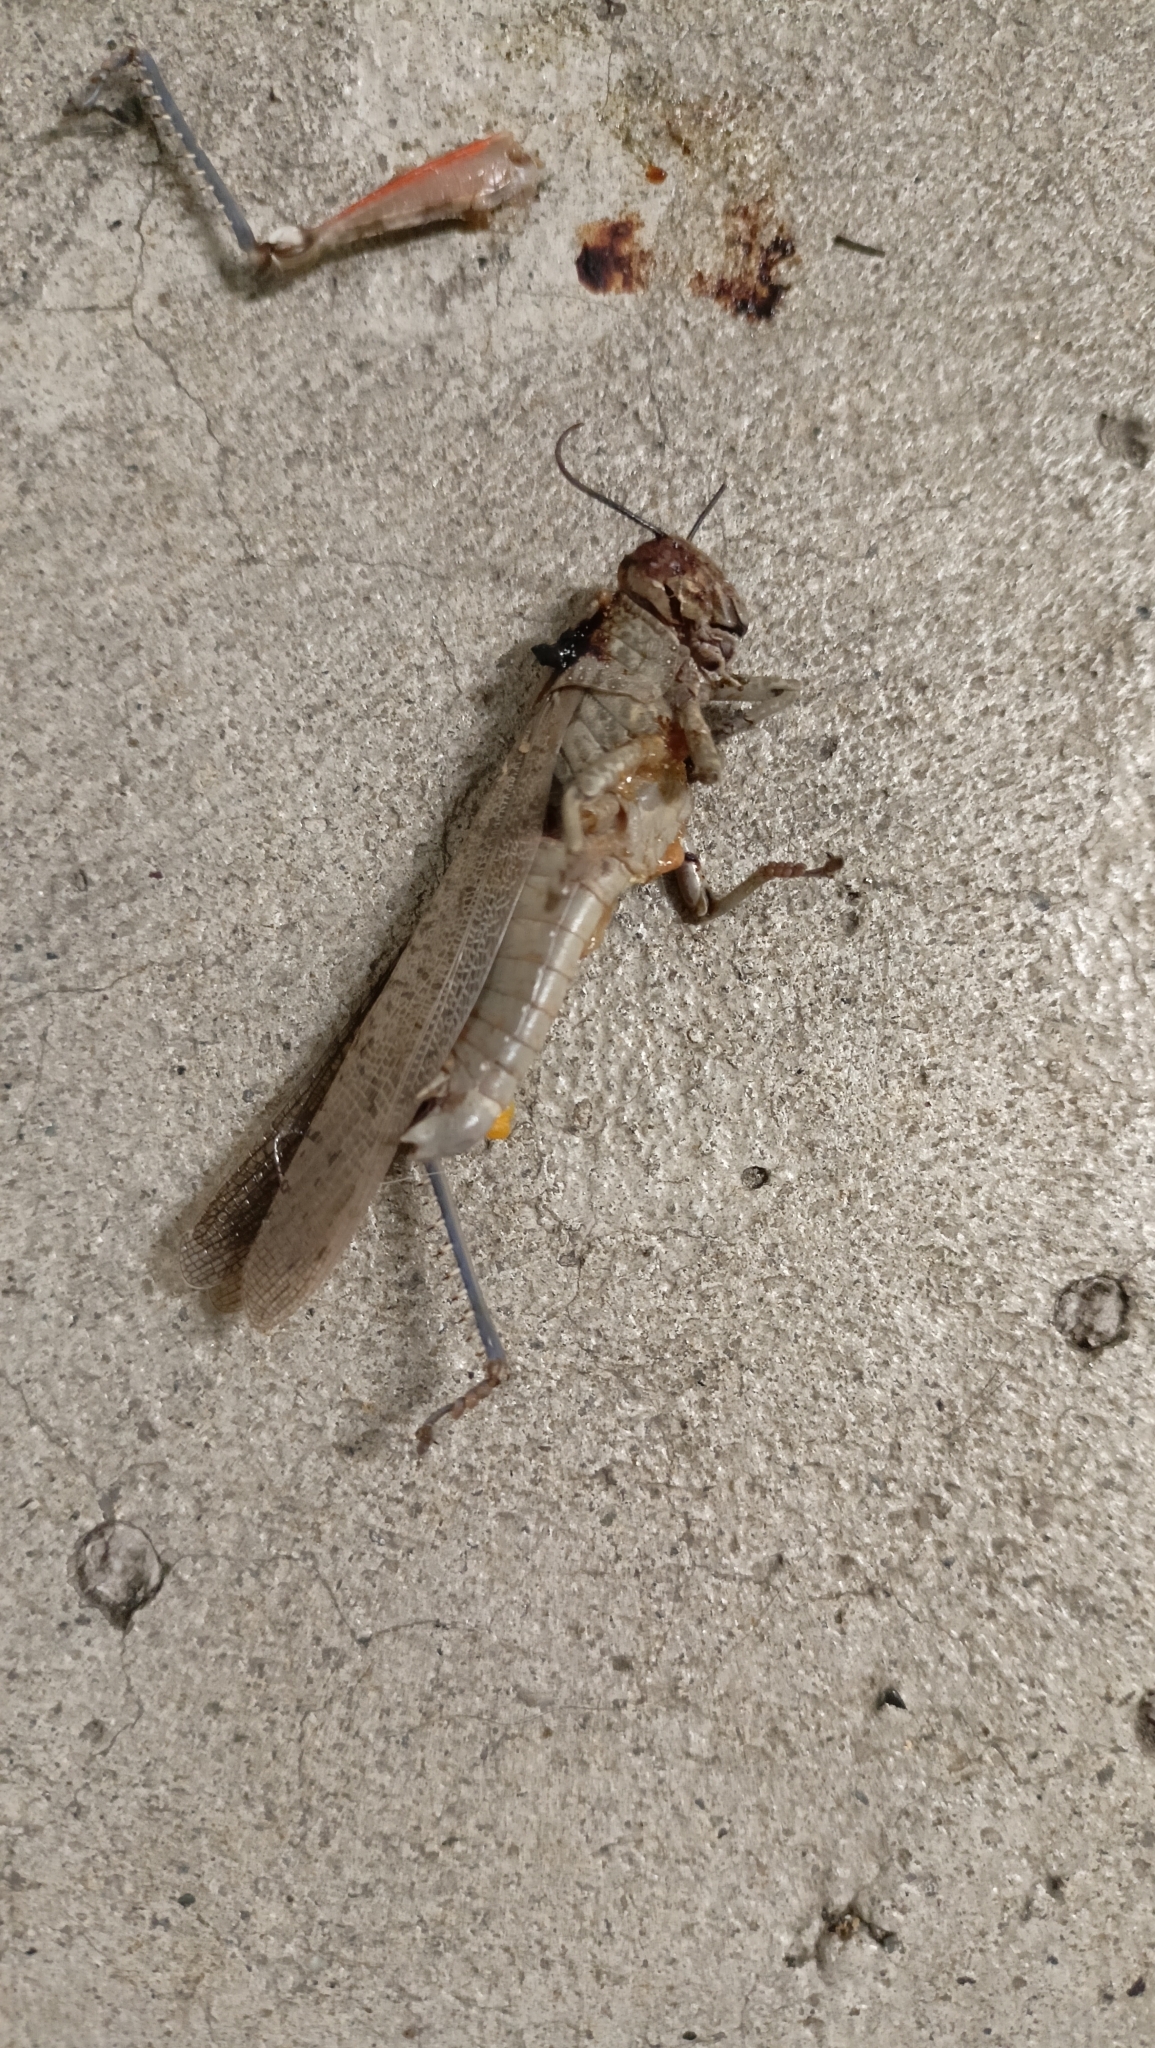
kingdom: Animalia
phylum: Arthropoda
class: Insecta
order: Orthoptera
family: Acrididae
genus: Anacridium
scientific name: Anacridium aegyptium
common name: Egyptian grasshopper
